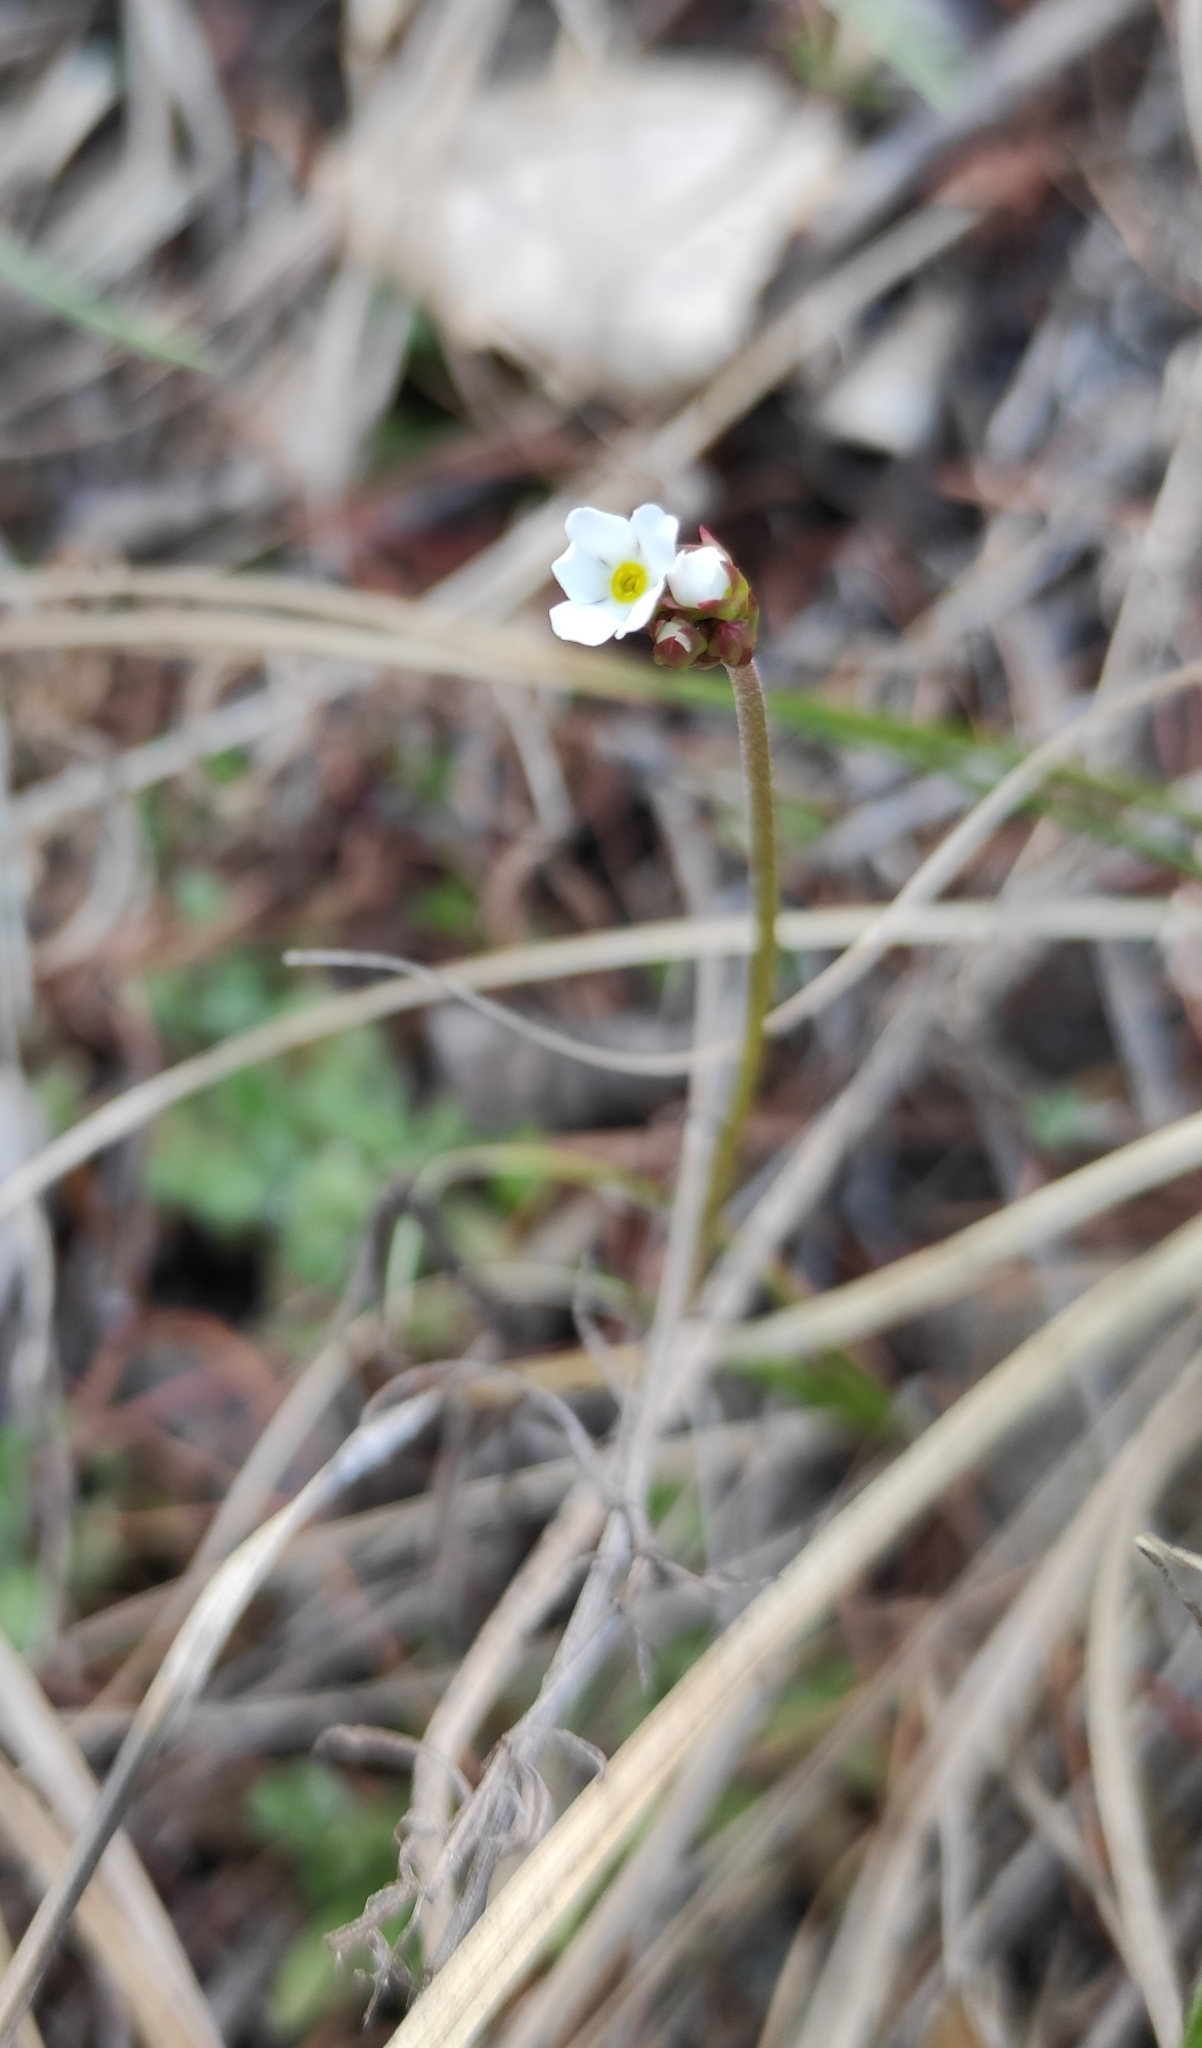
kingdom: Plantae
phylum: Tracheophyta
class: Magnoliopsida
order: Ericales
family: Primulaceae
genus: Androsace
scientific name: Androsace lactiflora
